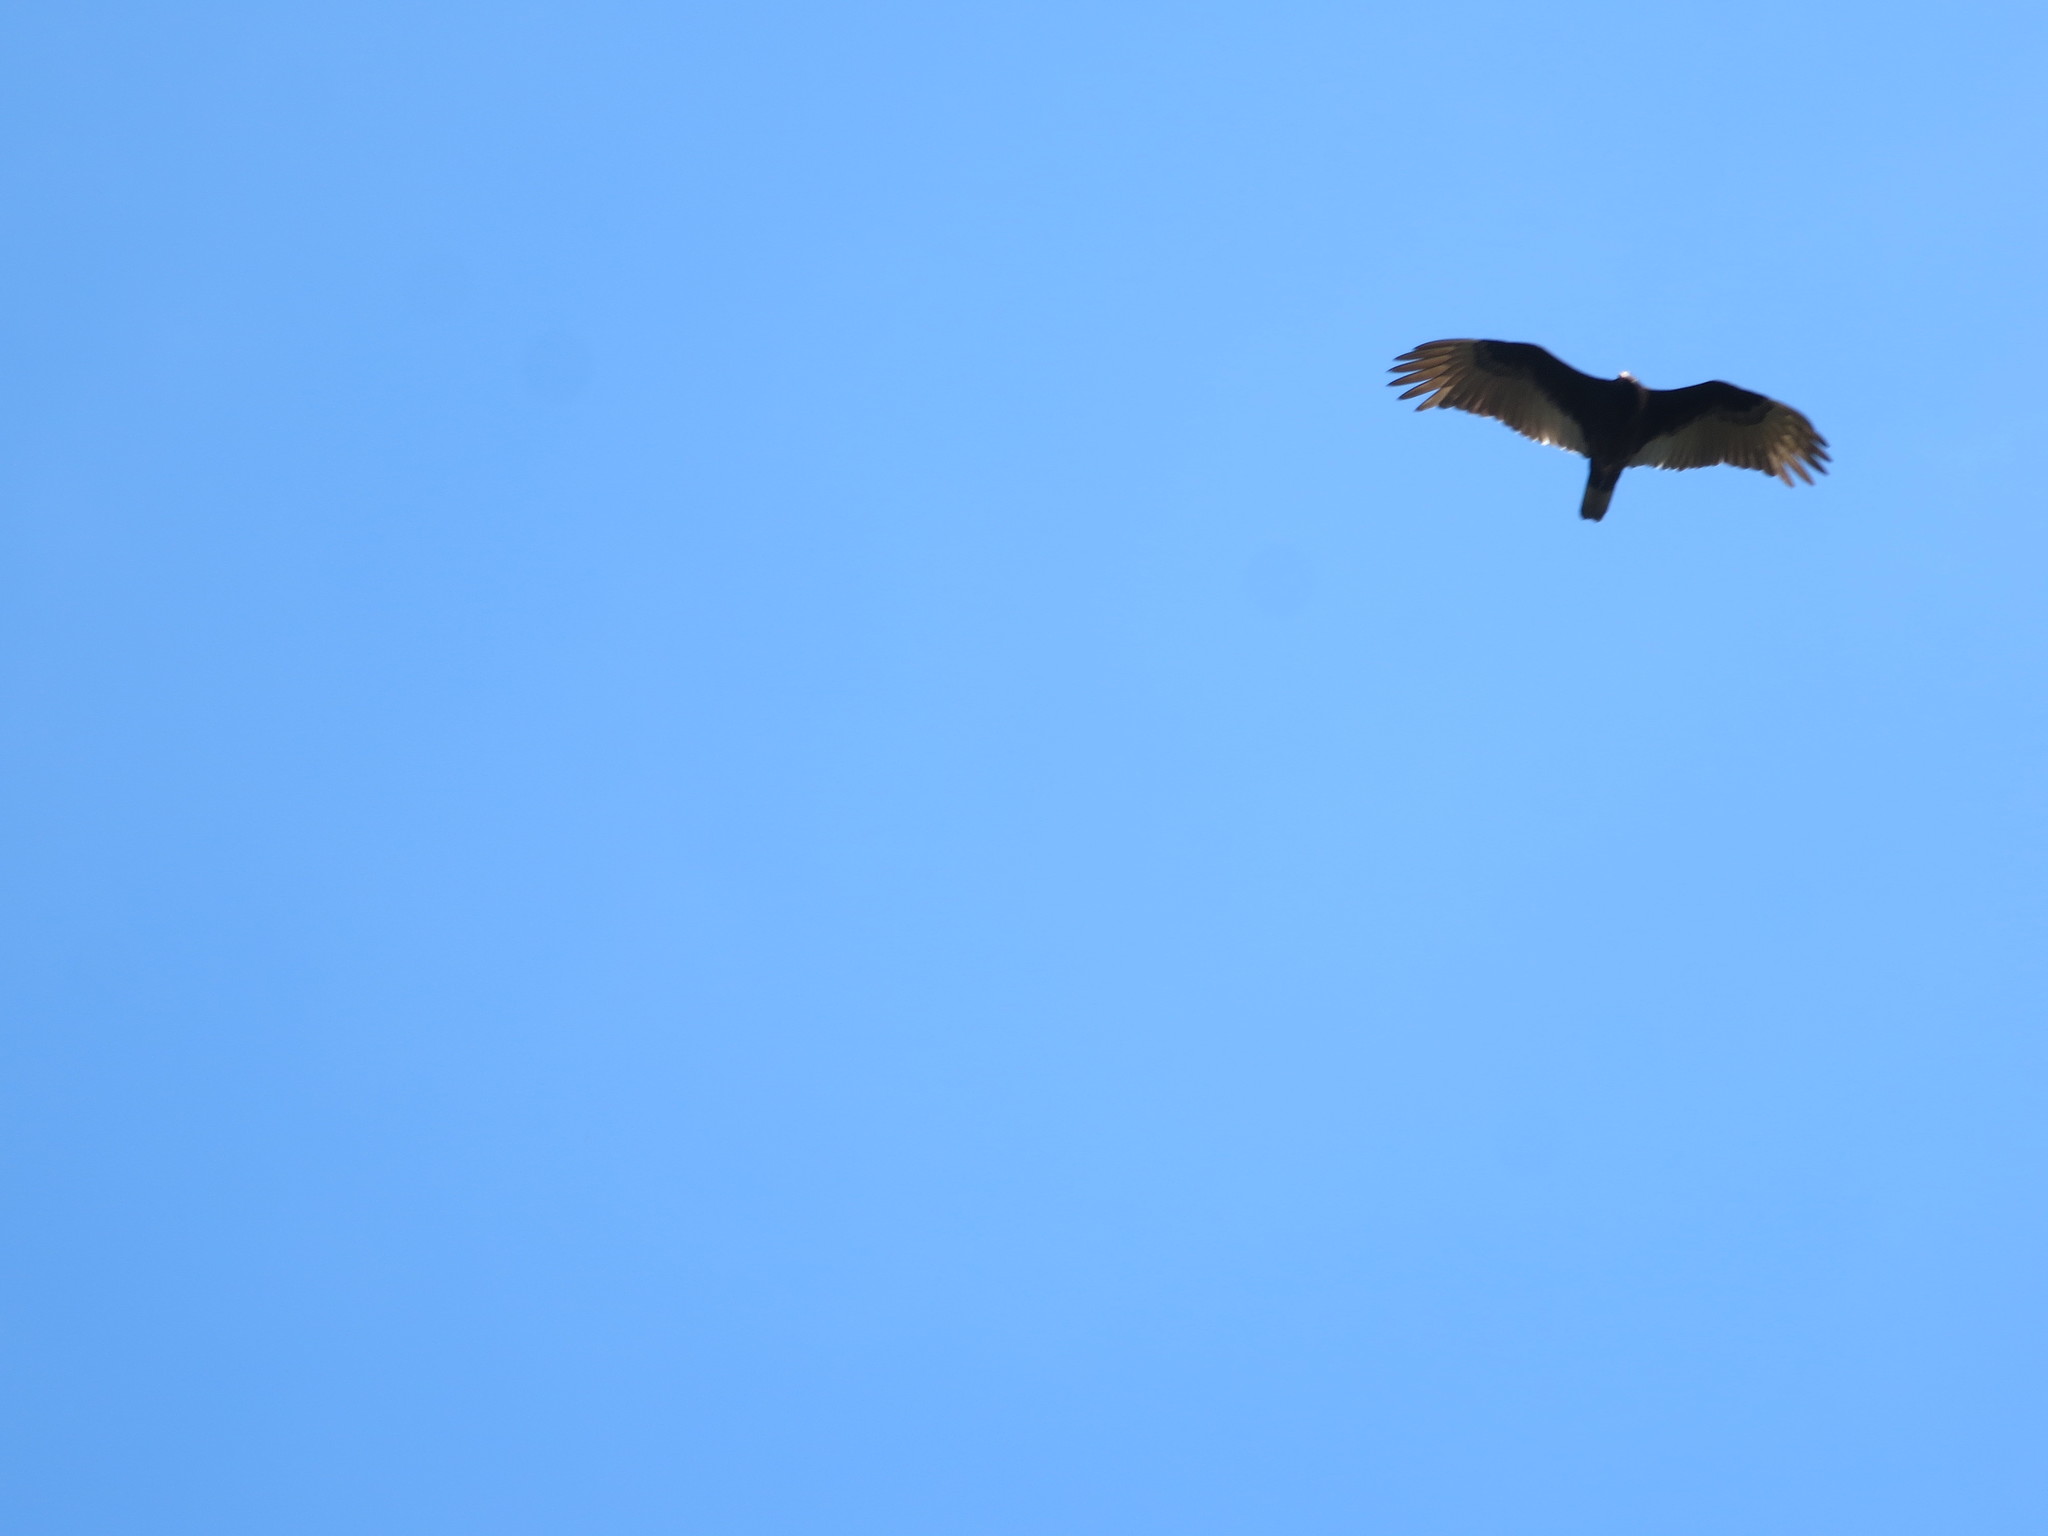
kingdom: Animalia
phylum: Chordata
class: Aves
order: Accipitriformes
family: Cathartidae
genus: Cathartes
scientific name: Cathartes aura
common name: Turkey vulture
